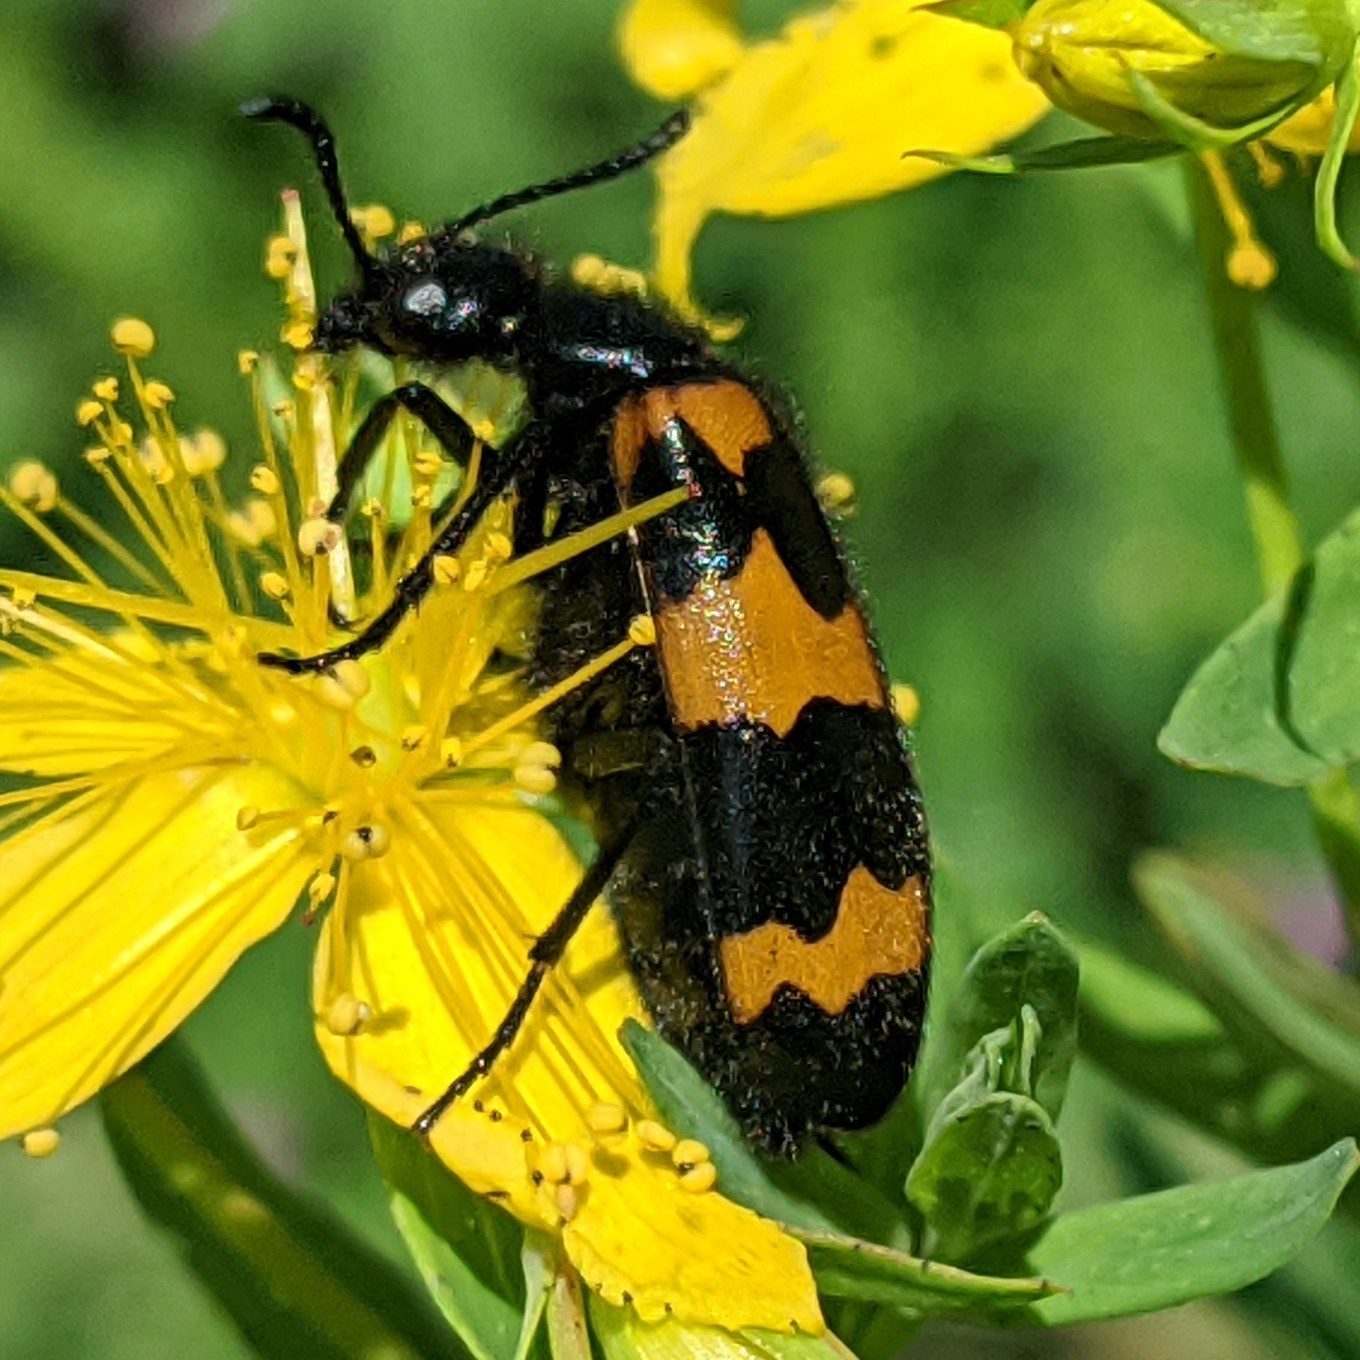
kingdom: Animalia
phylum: Arthropoda
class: Insecta
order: Coleoptera
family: Meloidae
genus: Mylabris
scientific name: Mylabris variabilis
